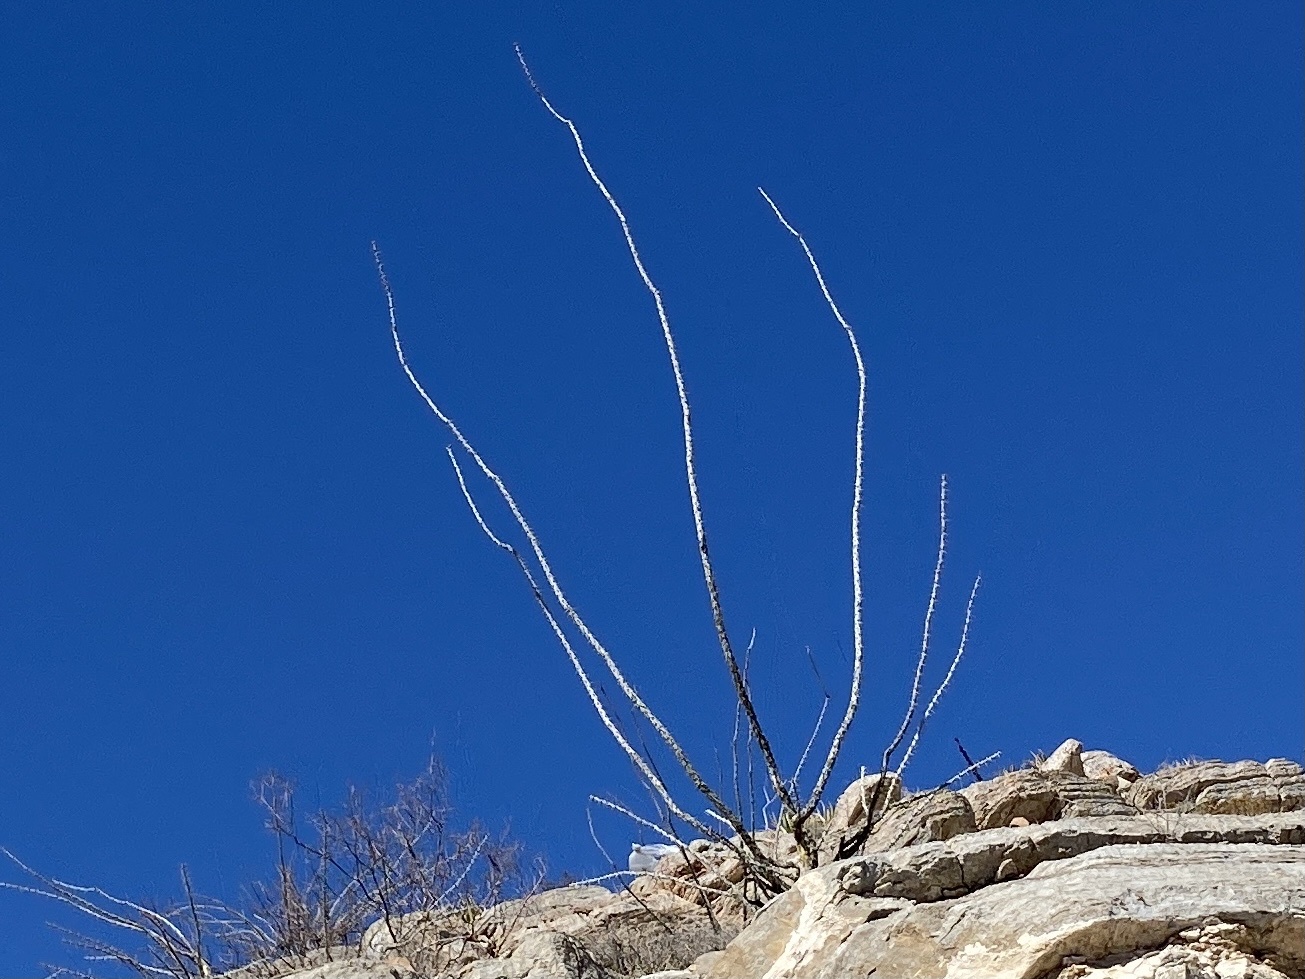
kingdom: Plantae
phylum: Tracheophyta
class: Magnoliopsida
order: Ericales
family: Fouquieriaceae
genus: Fouquieria
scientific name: Fouquieria splendens
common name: Vine-cactus
